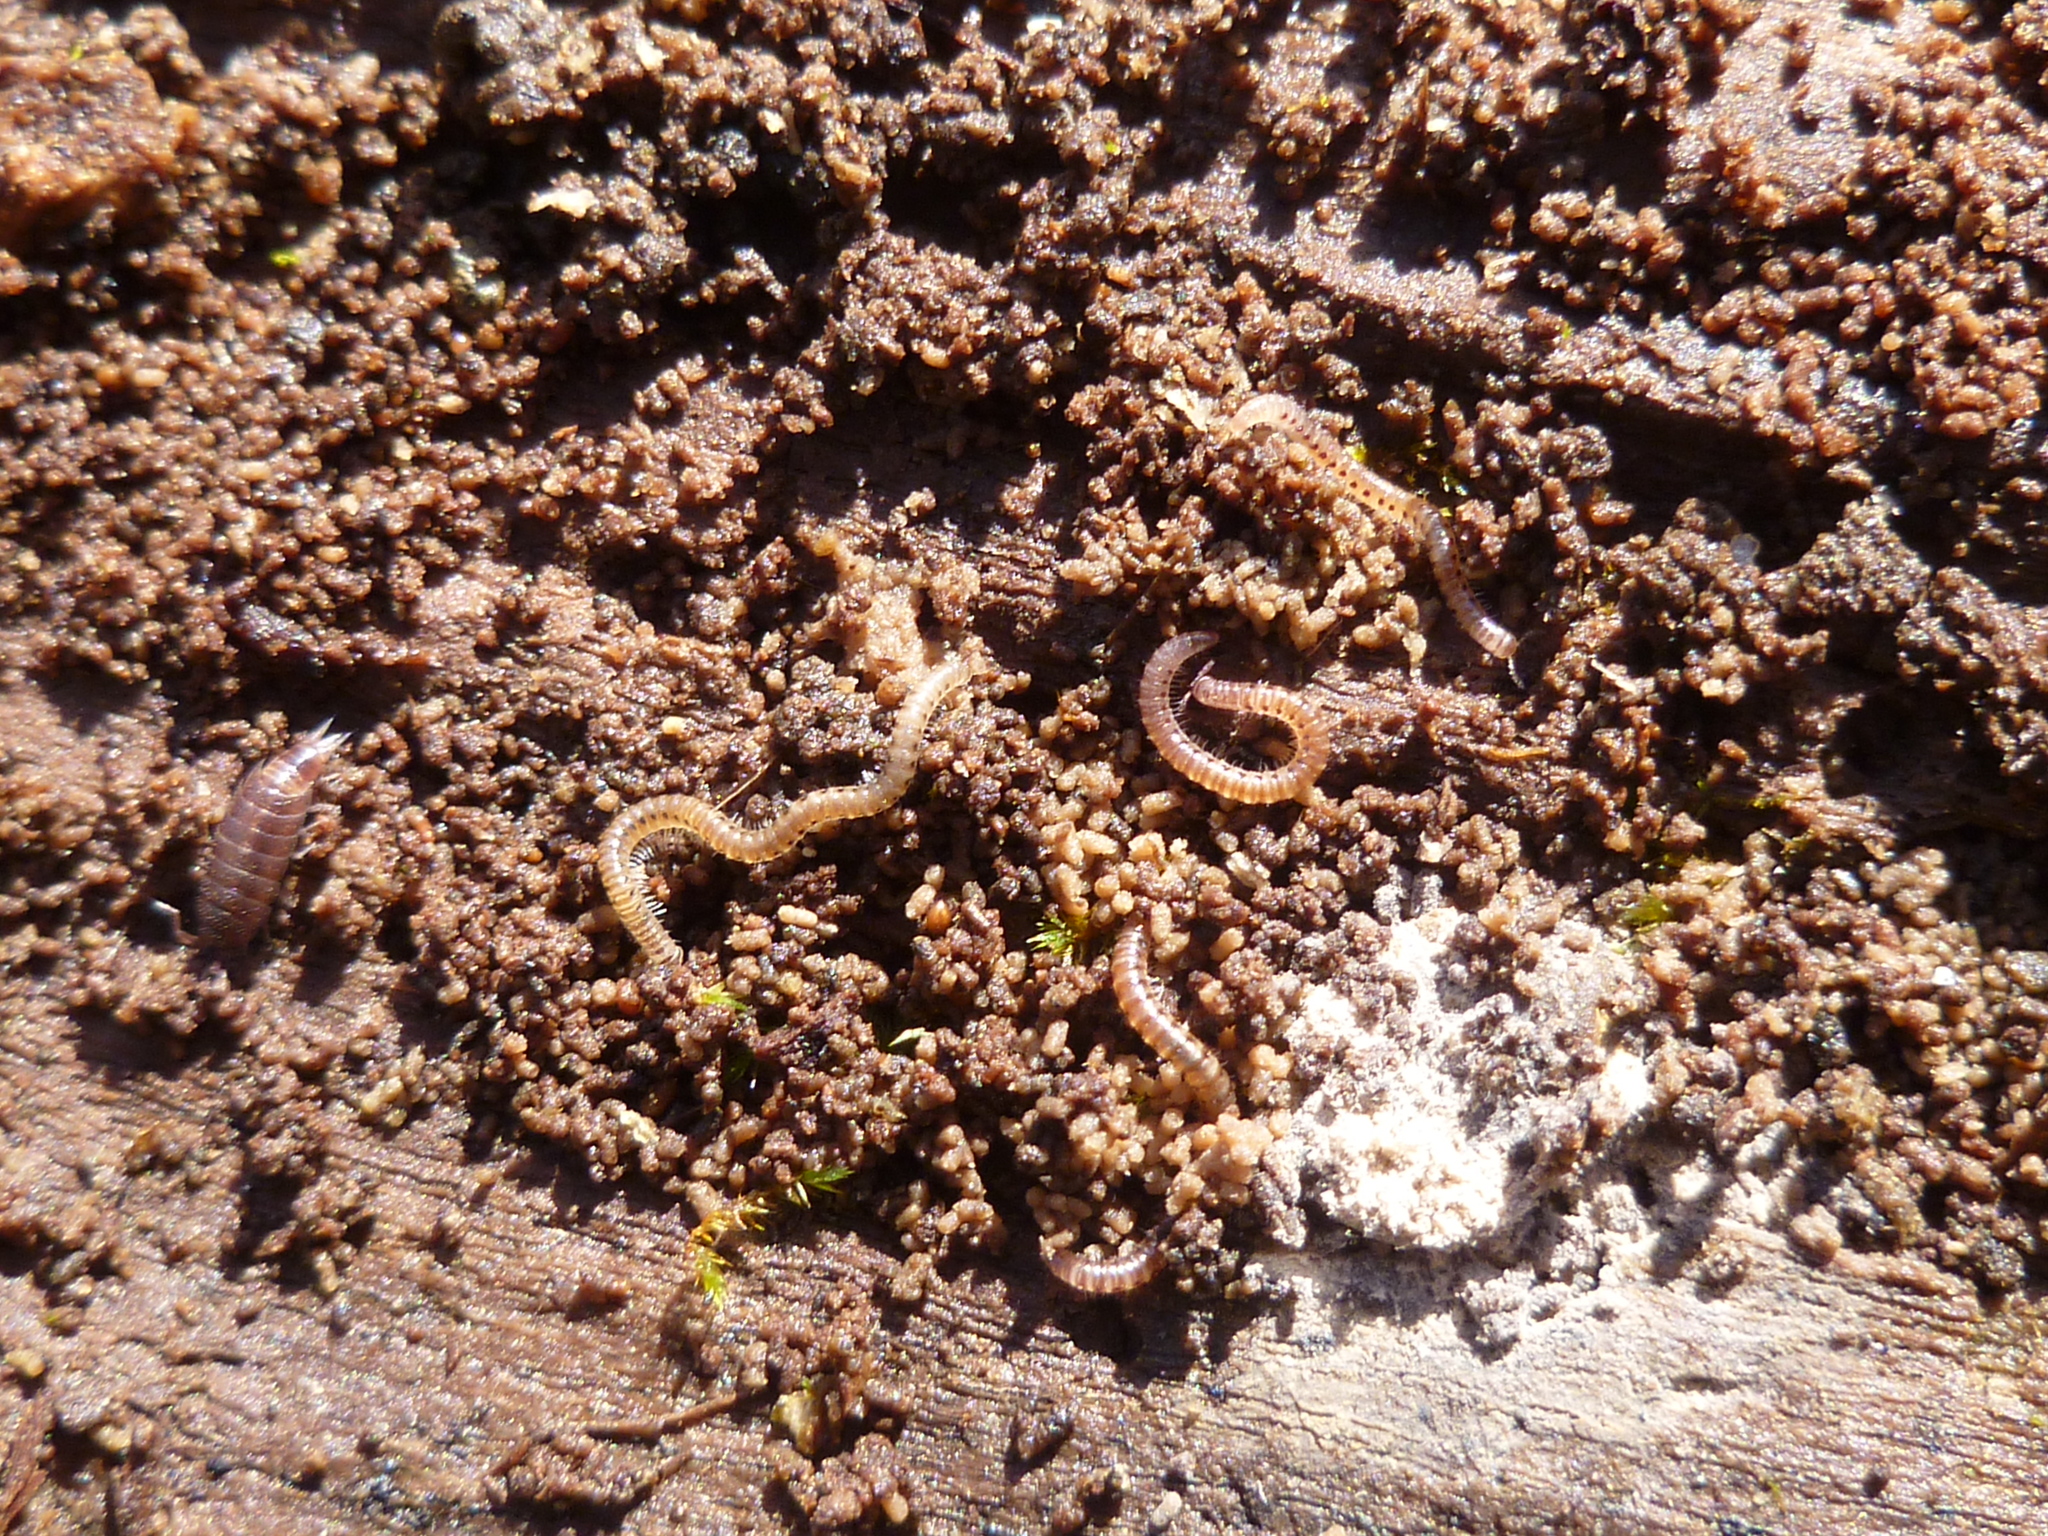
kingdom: Animalia
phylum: Arthropoda
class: Diplopoda
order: Julida
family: Blaniulidae
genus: Blaniulus
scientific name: Blaniulus guttulatus
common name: Spotted snake millipede
